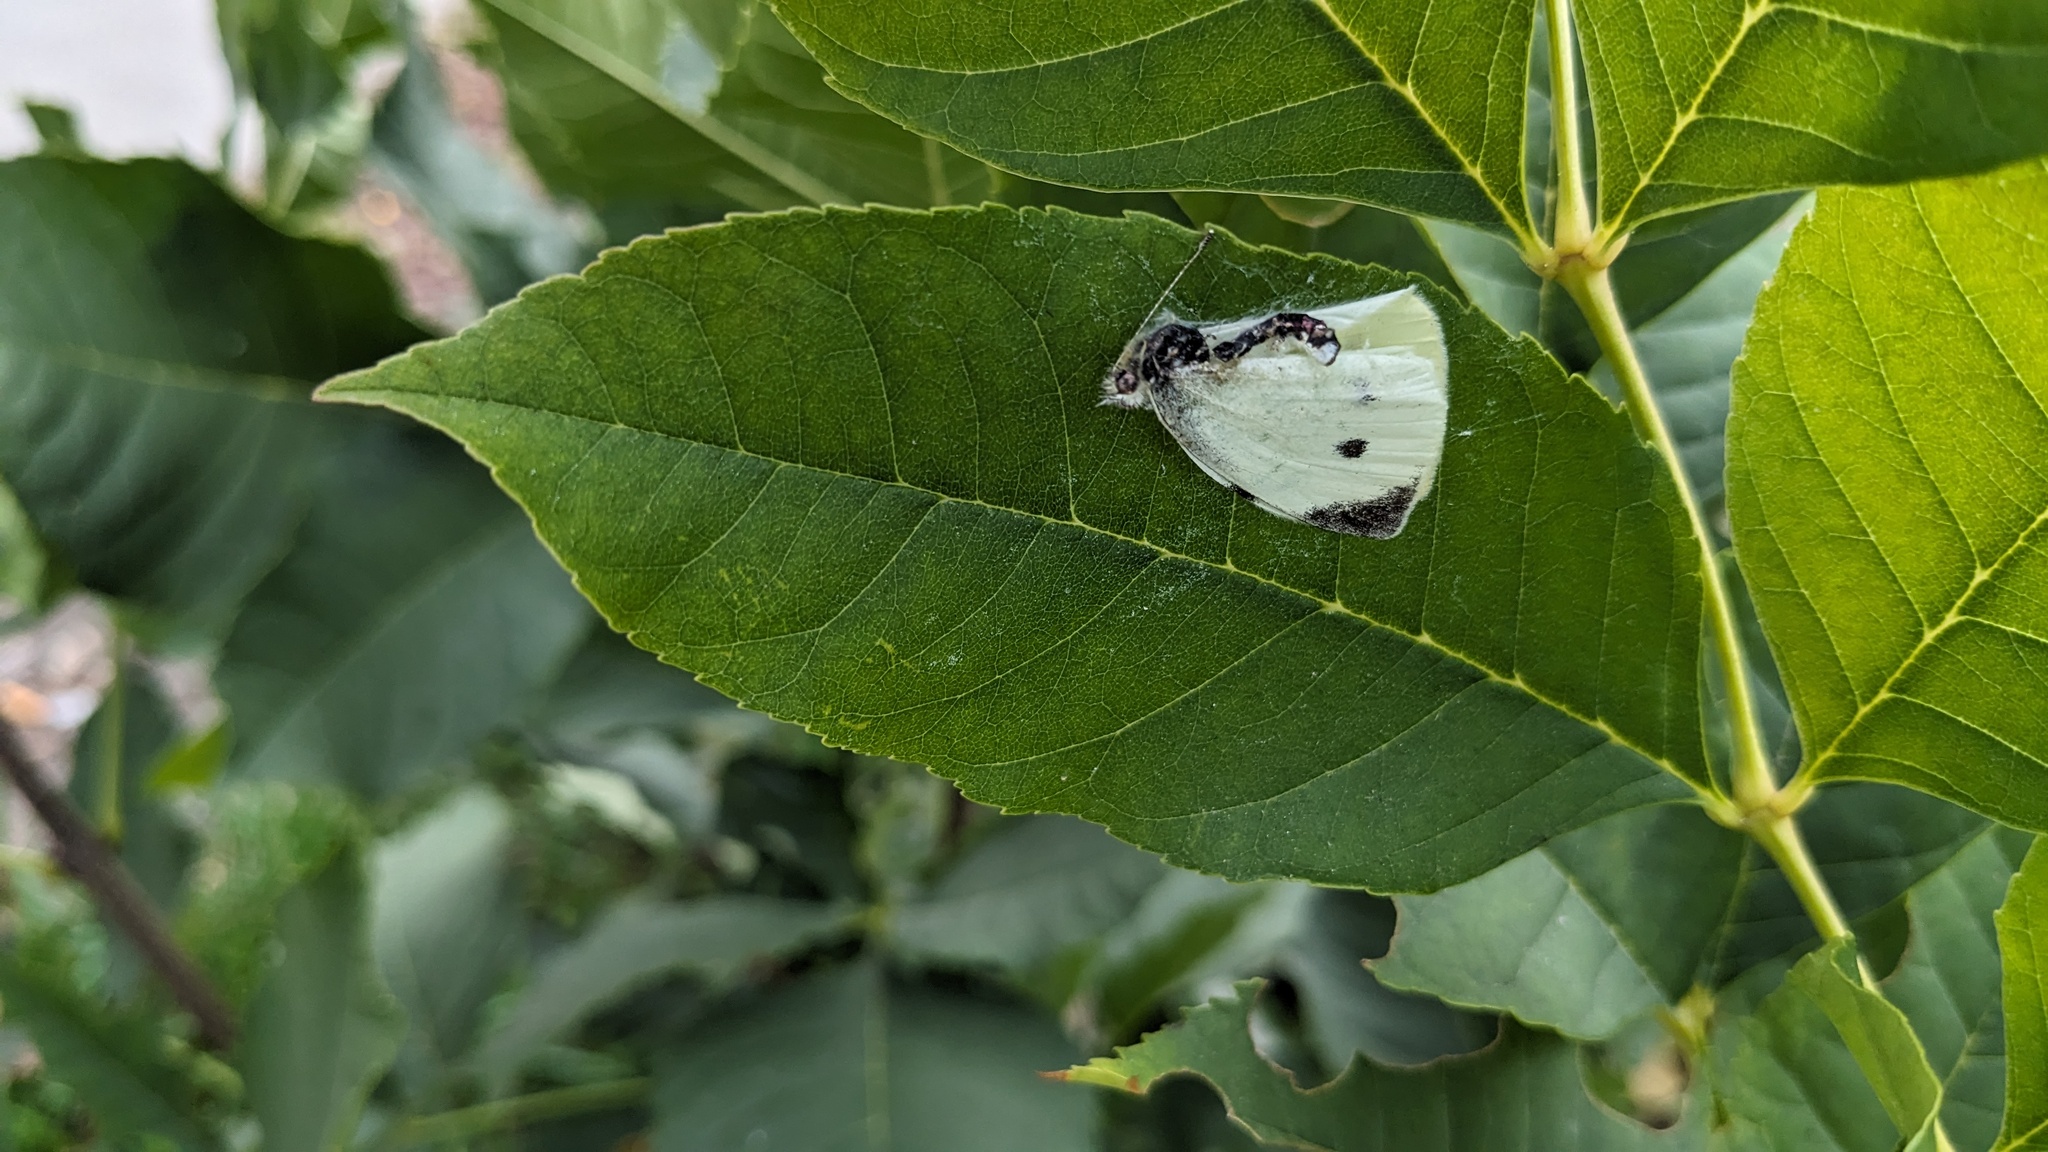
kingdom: Animalia
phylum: Arthropoda
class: Insecta
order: Lepidoptera
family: Pieridae
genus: Pieris
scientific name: Pieris rapae
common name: Small white
